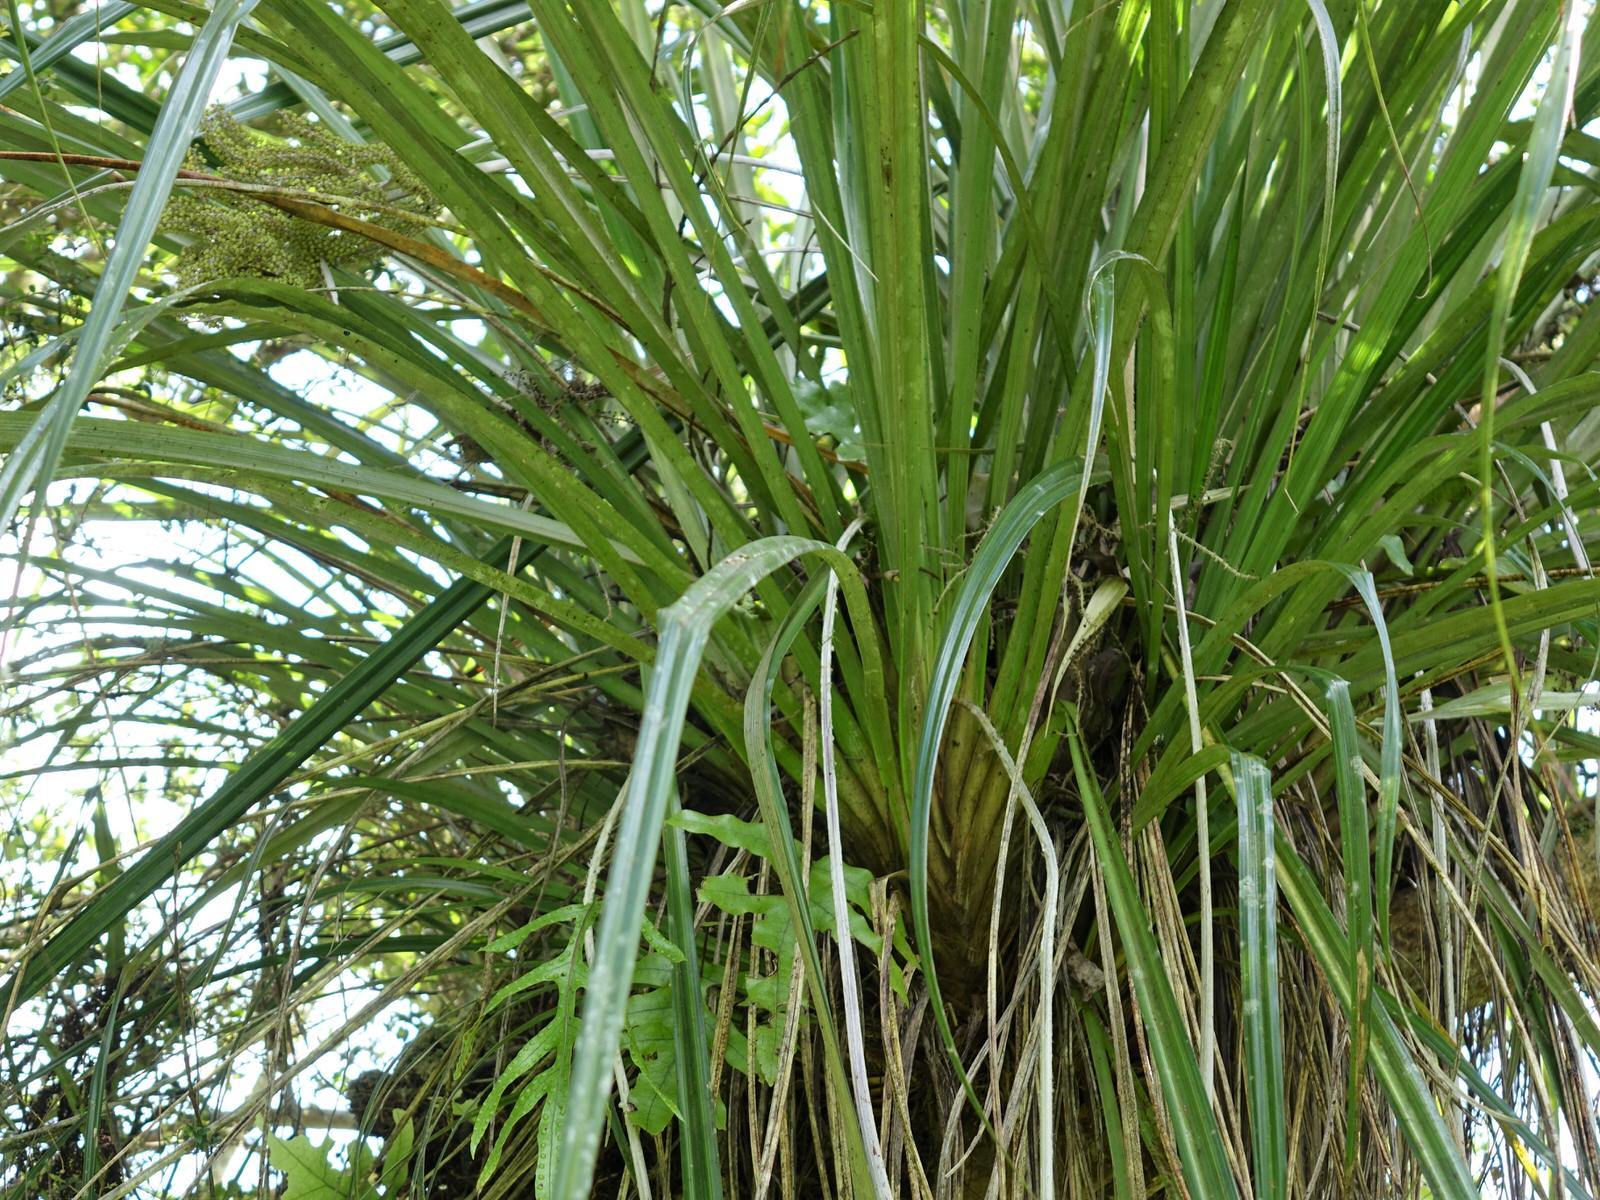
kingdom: Plantae
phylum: Tracheophyta
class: Liliopsida
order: Asparagales
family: Asteliaceae
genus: Astelia
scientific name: Astelia solandri
